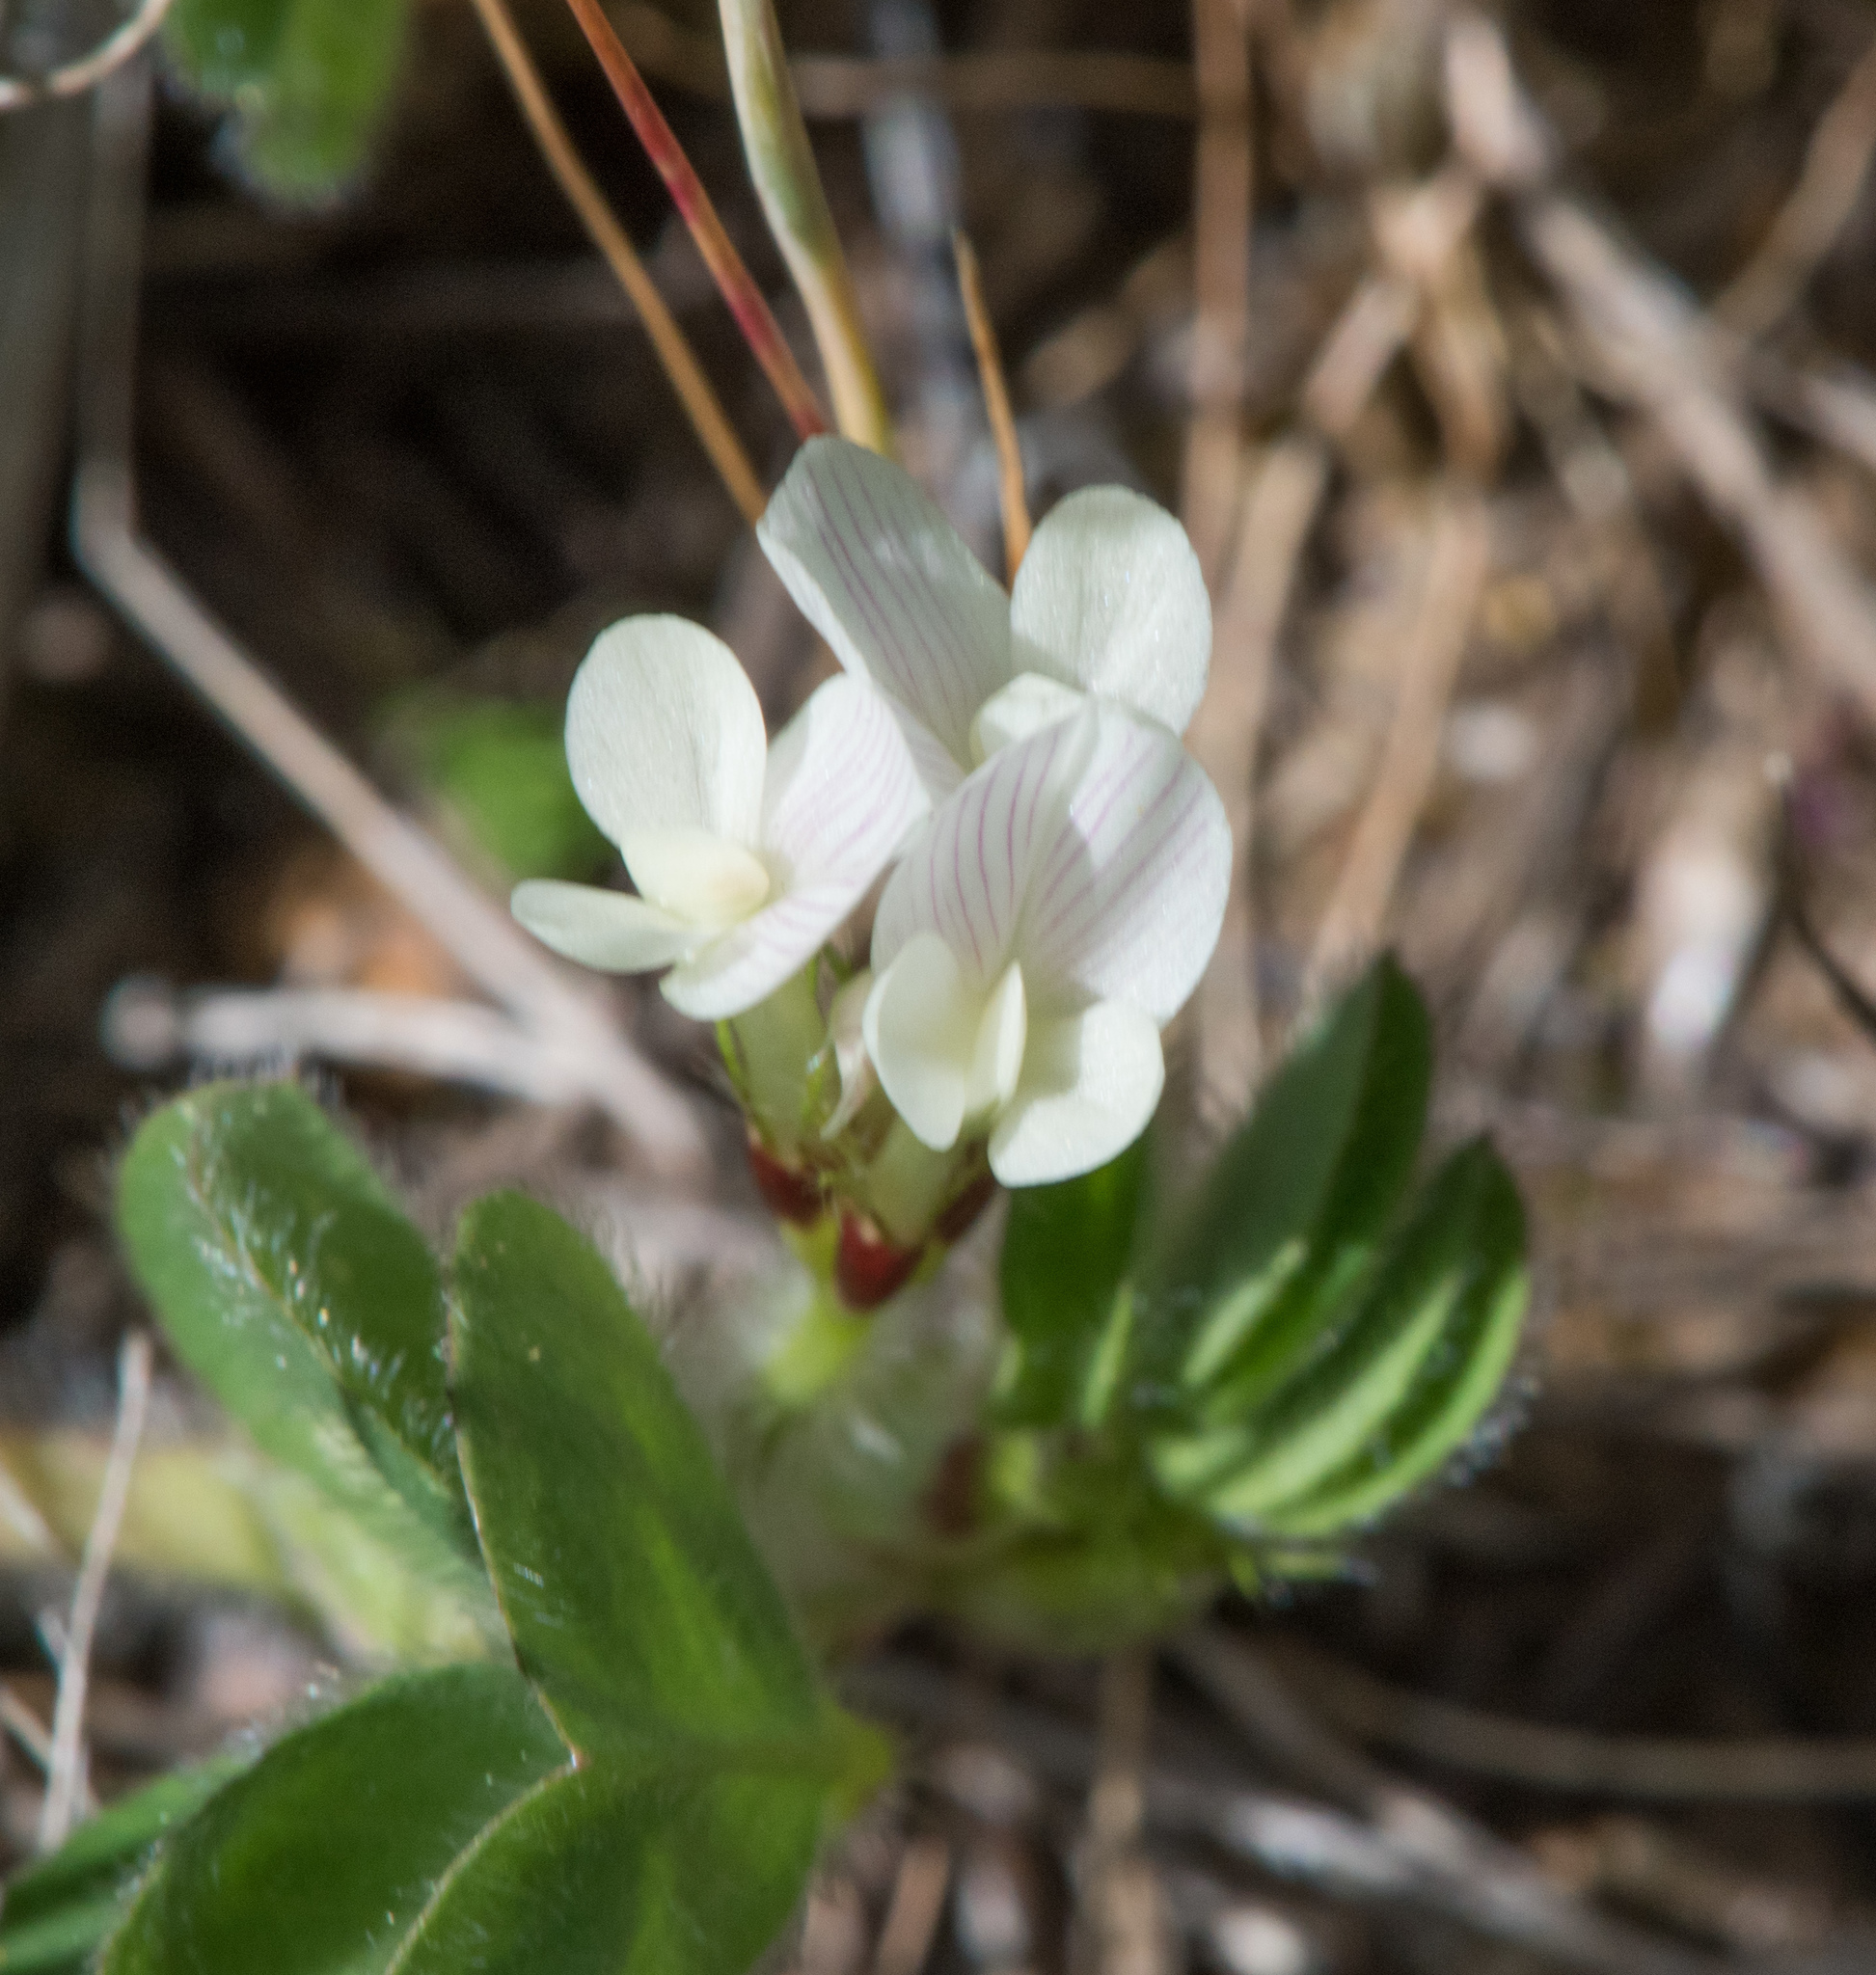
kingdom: Plantae
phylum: Tracheophyta
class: Magnoliopsida
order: Fabales
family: Fabaceae
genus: Trifolium
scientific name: Trifolium subterraneum
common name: Subterranean clover
